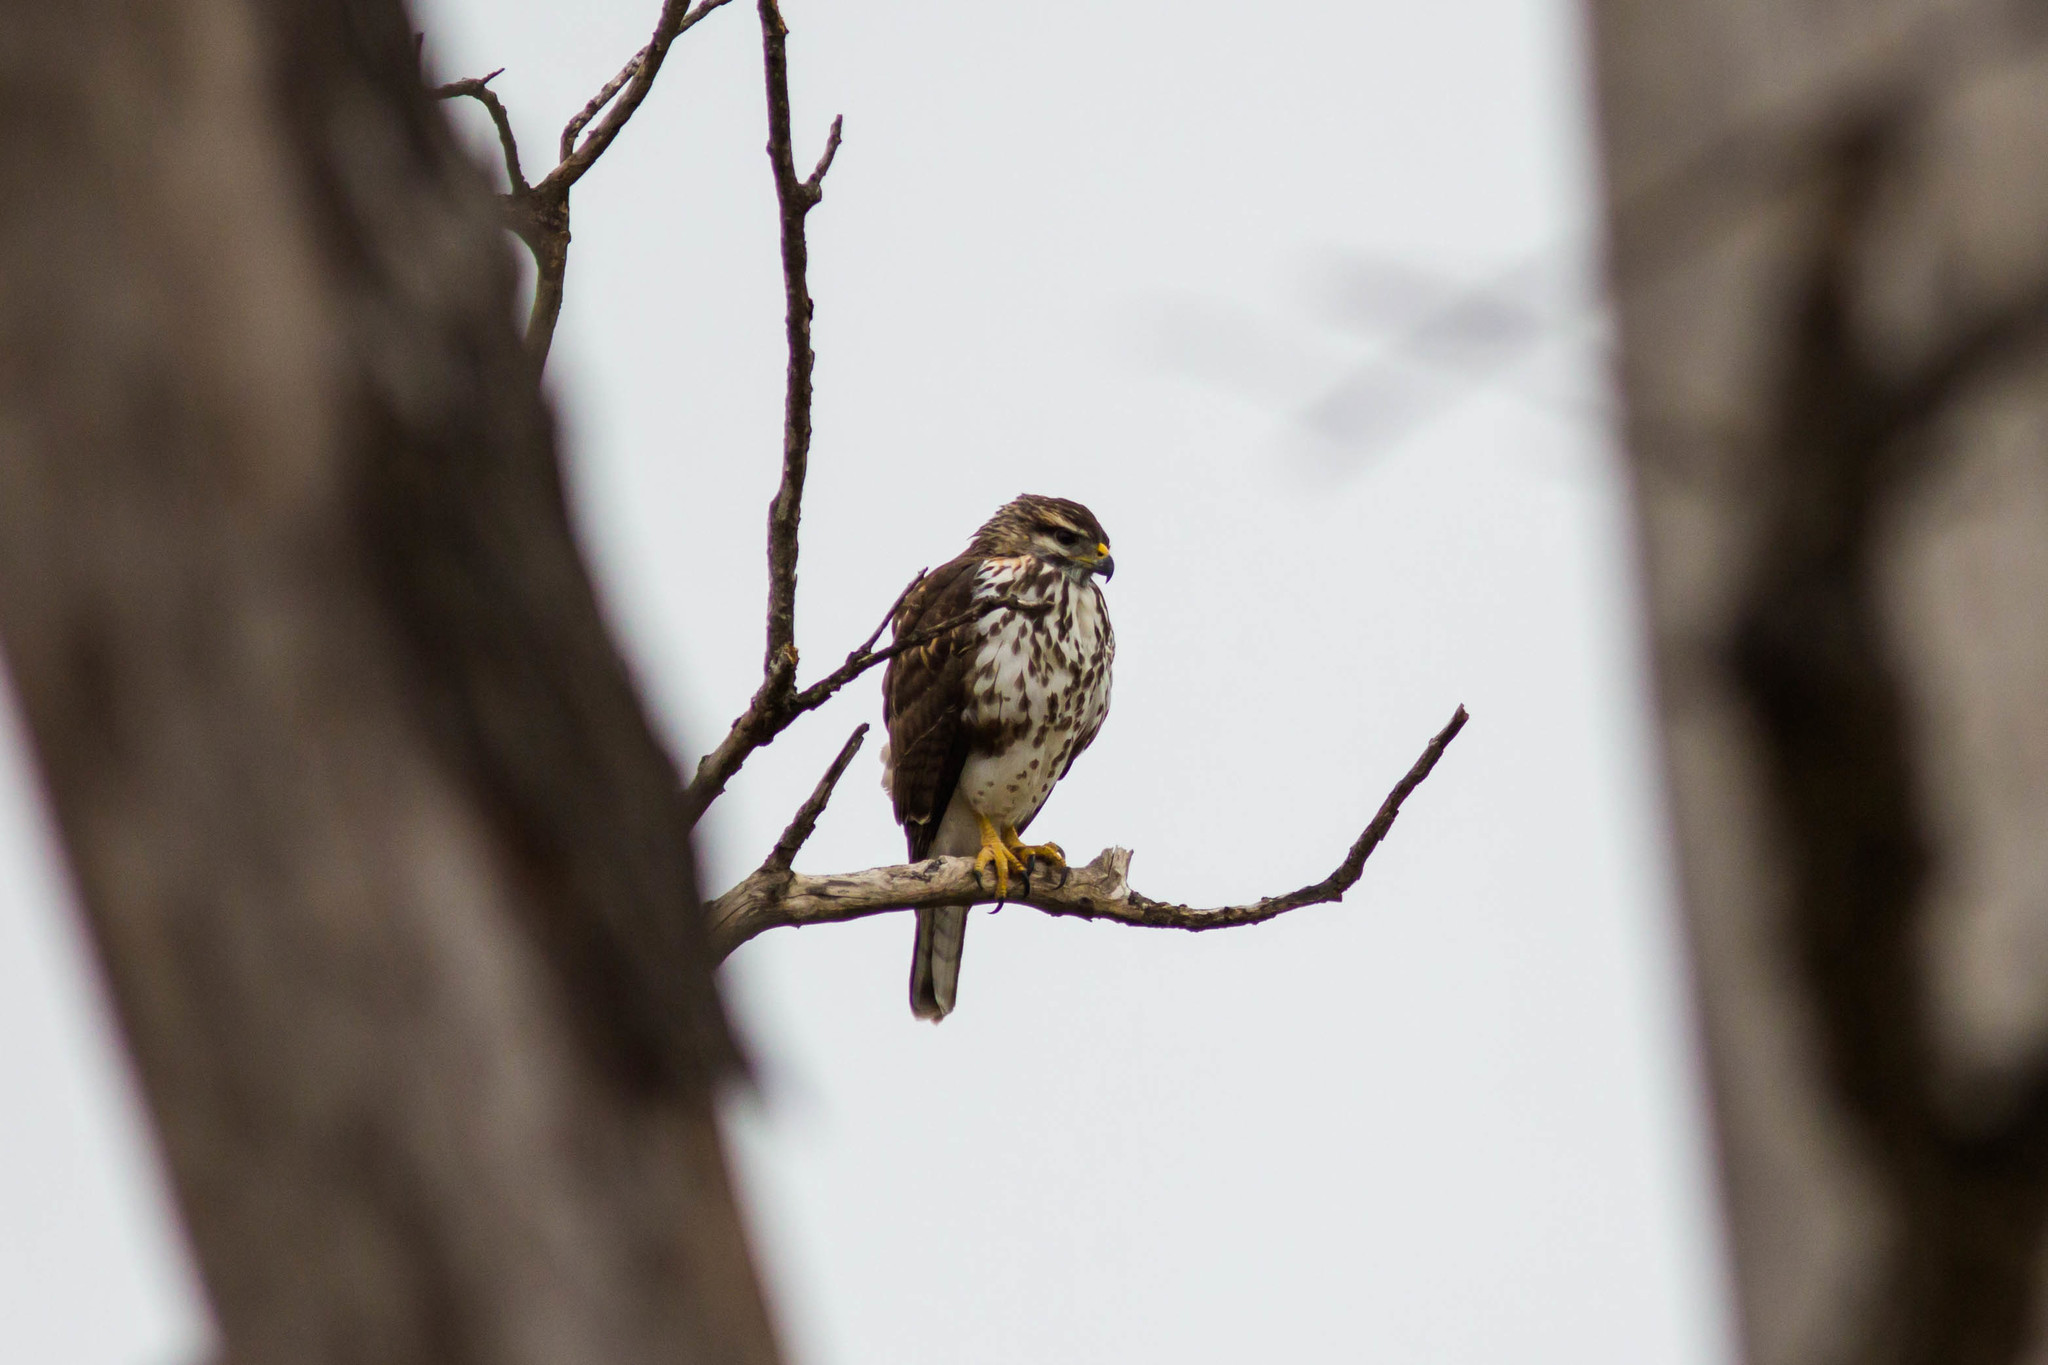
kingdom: Animalia
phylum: Chordata
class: Aves
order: Accipitriformes
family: Accipitridae
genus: Buteo
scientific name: Buteo nitidus
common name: Grey-lined hawk
